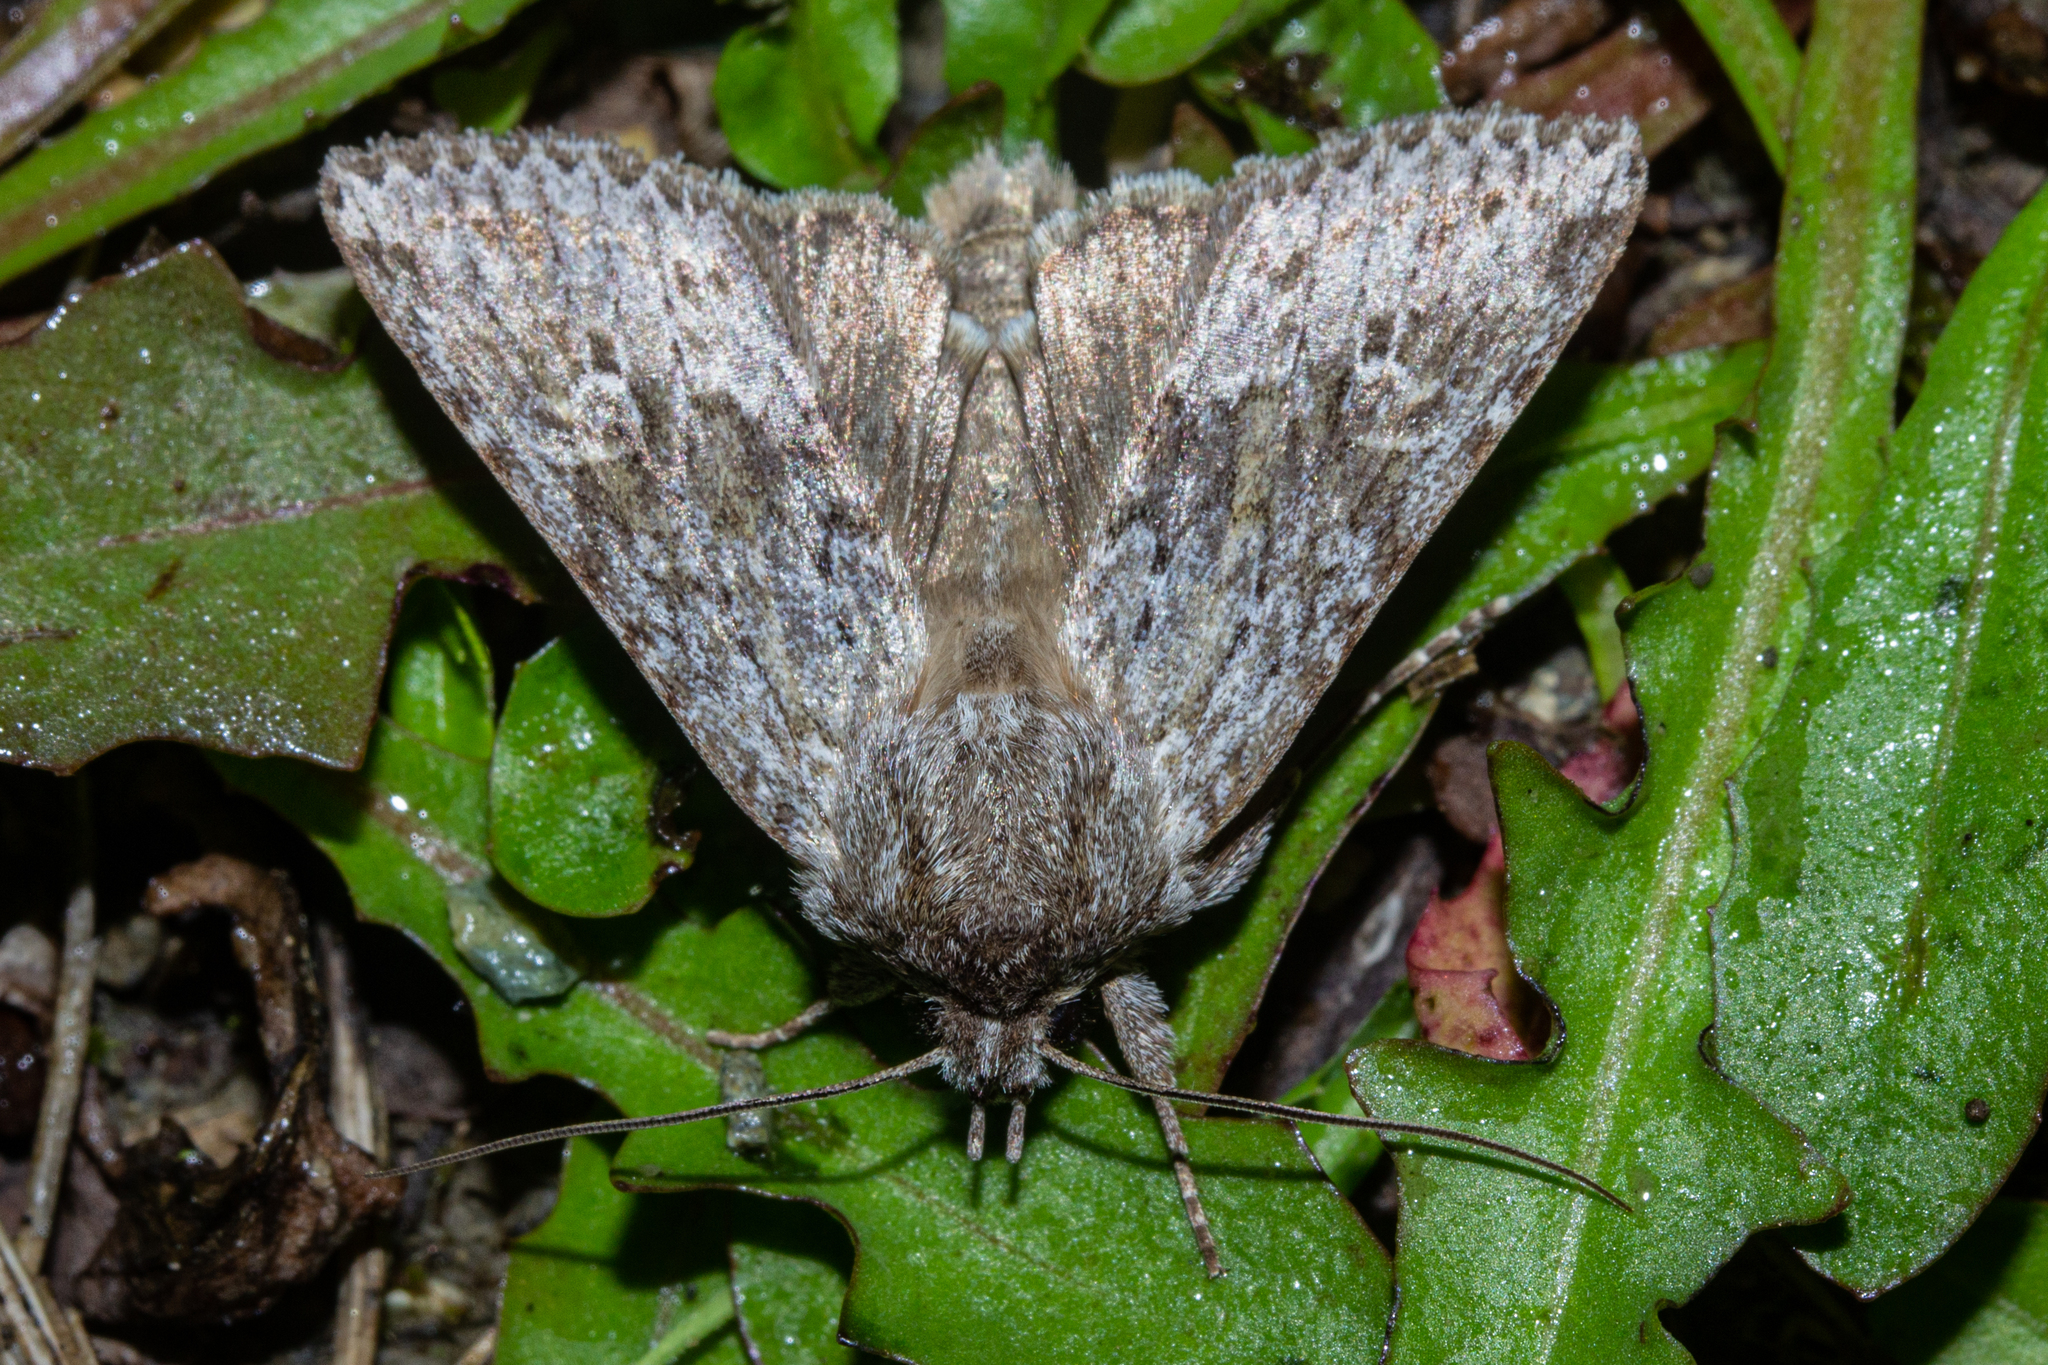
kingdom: Animalia
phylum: Arthropoda
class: Insecta
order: Lepidoptera
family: Noctuidae
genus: Physetica
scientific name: Physetica cucullina
